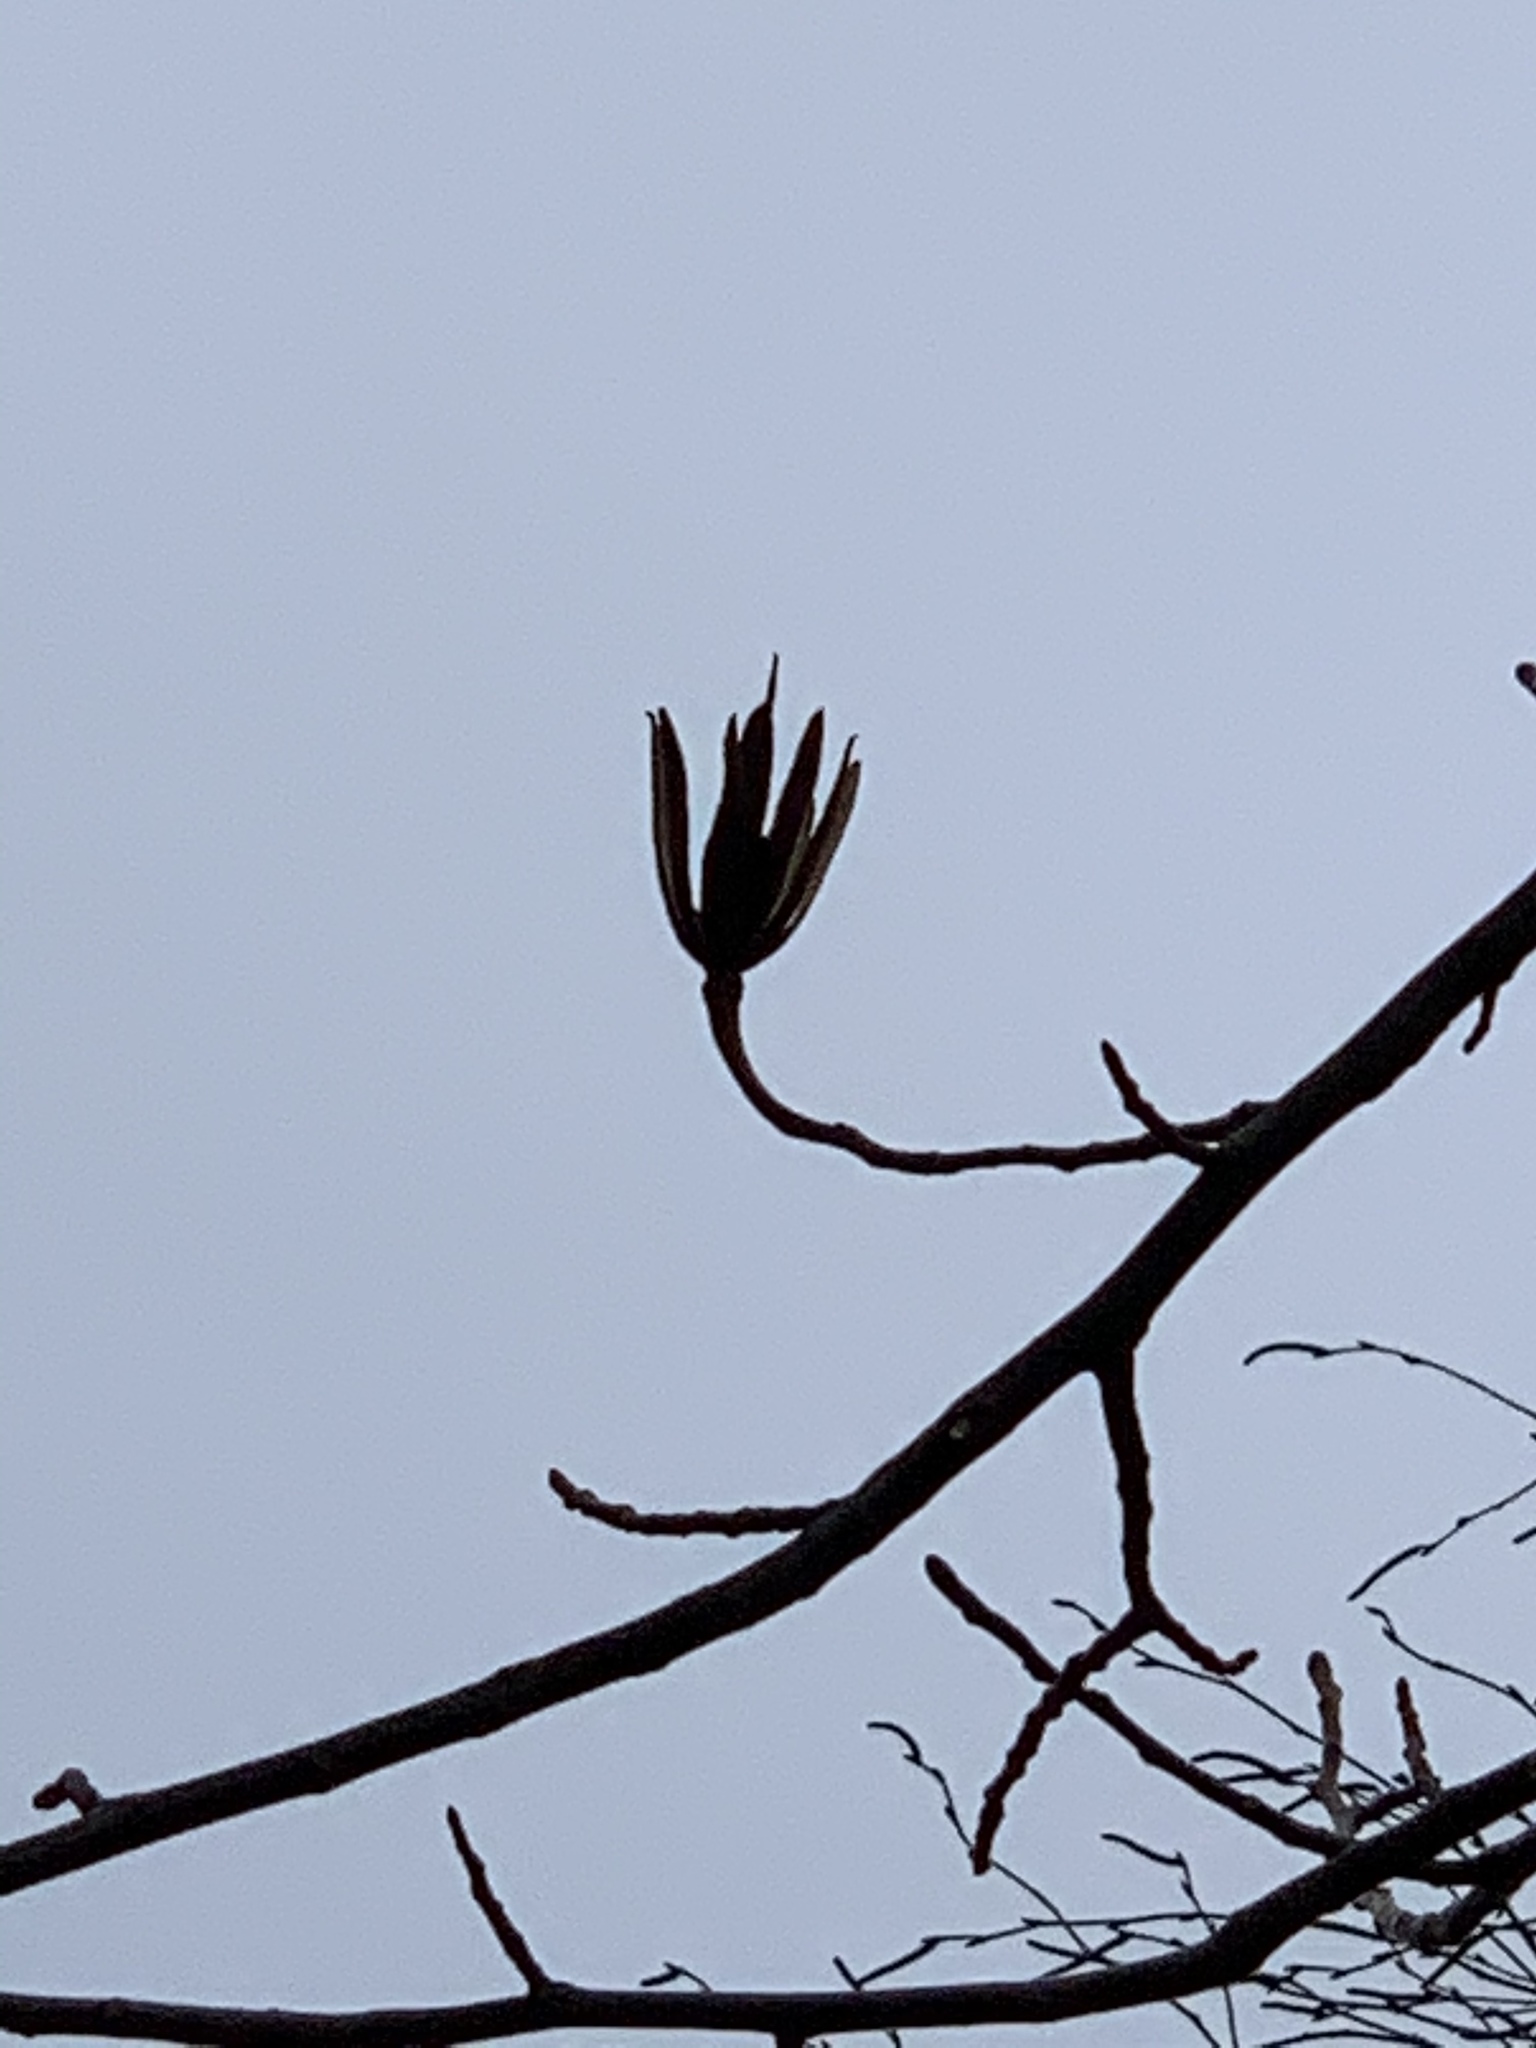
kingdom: Plantae
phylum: Tracheophyta
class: Magnoliopsida
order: Magnoliales
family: Magnoliaceae
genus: Liriodendron
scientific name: Liriodendron tulipifera
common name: Tulip tree
